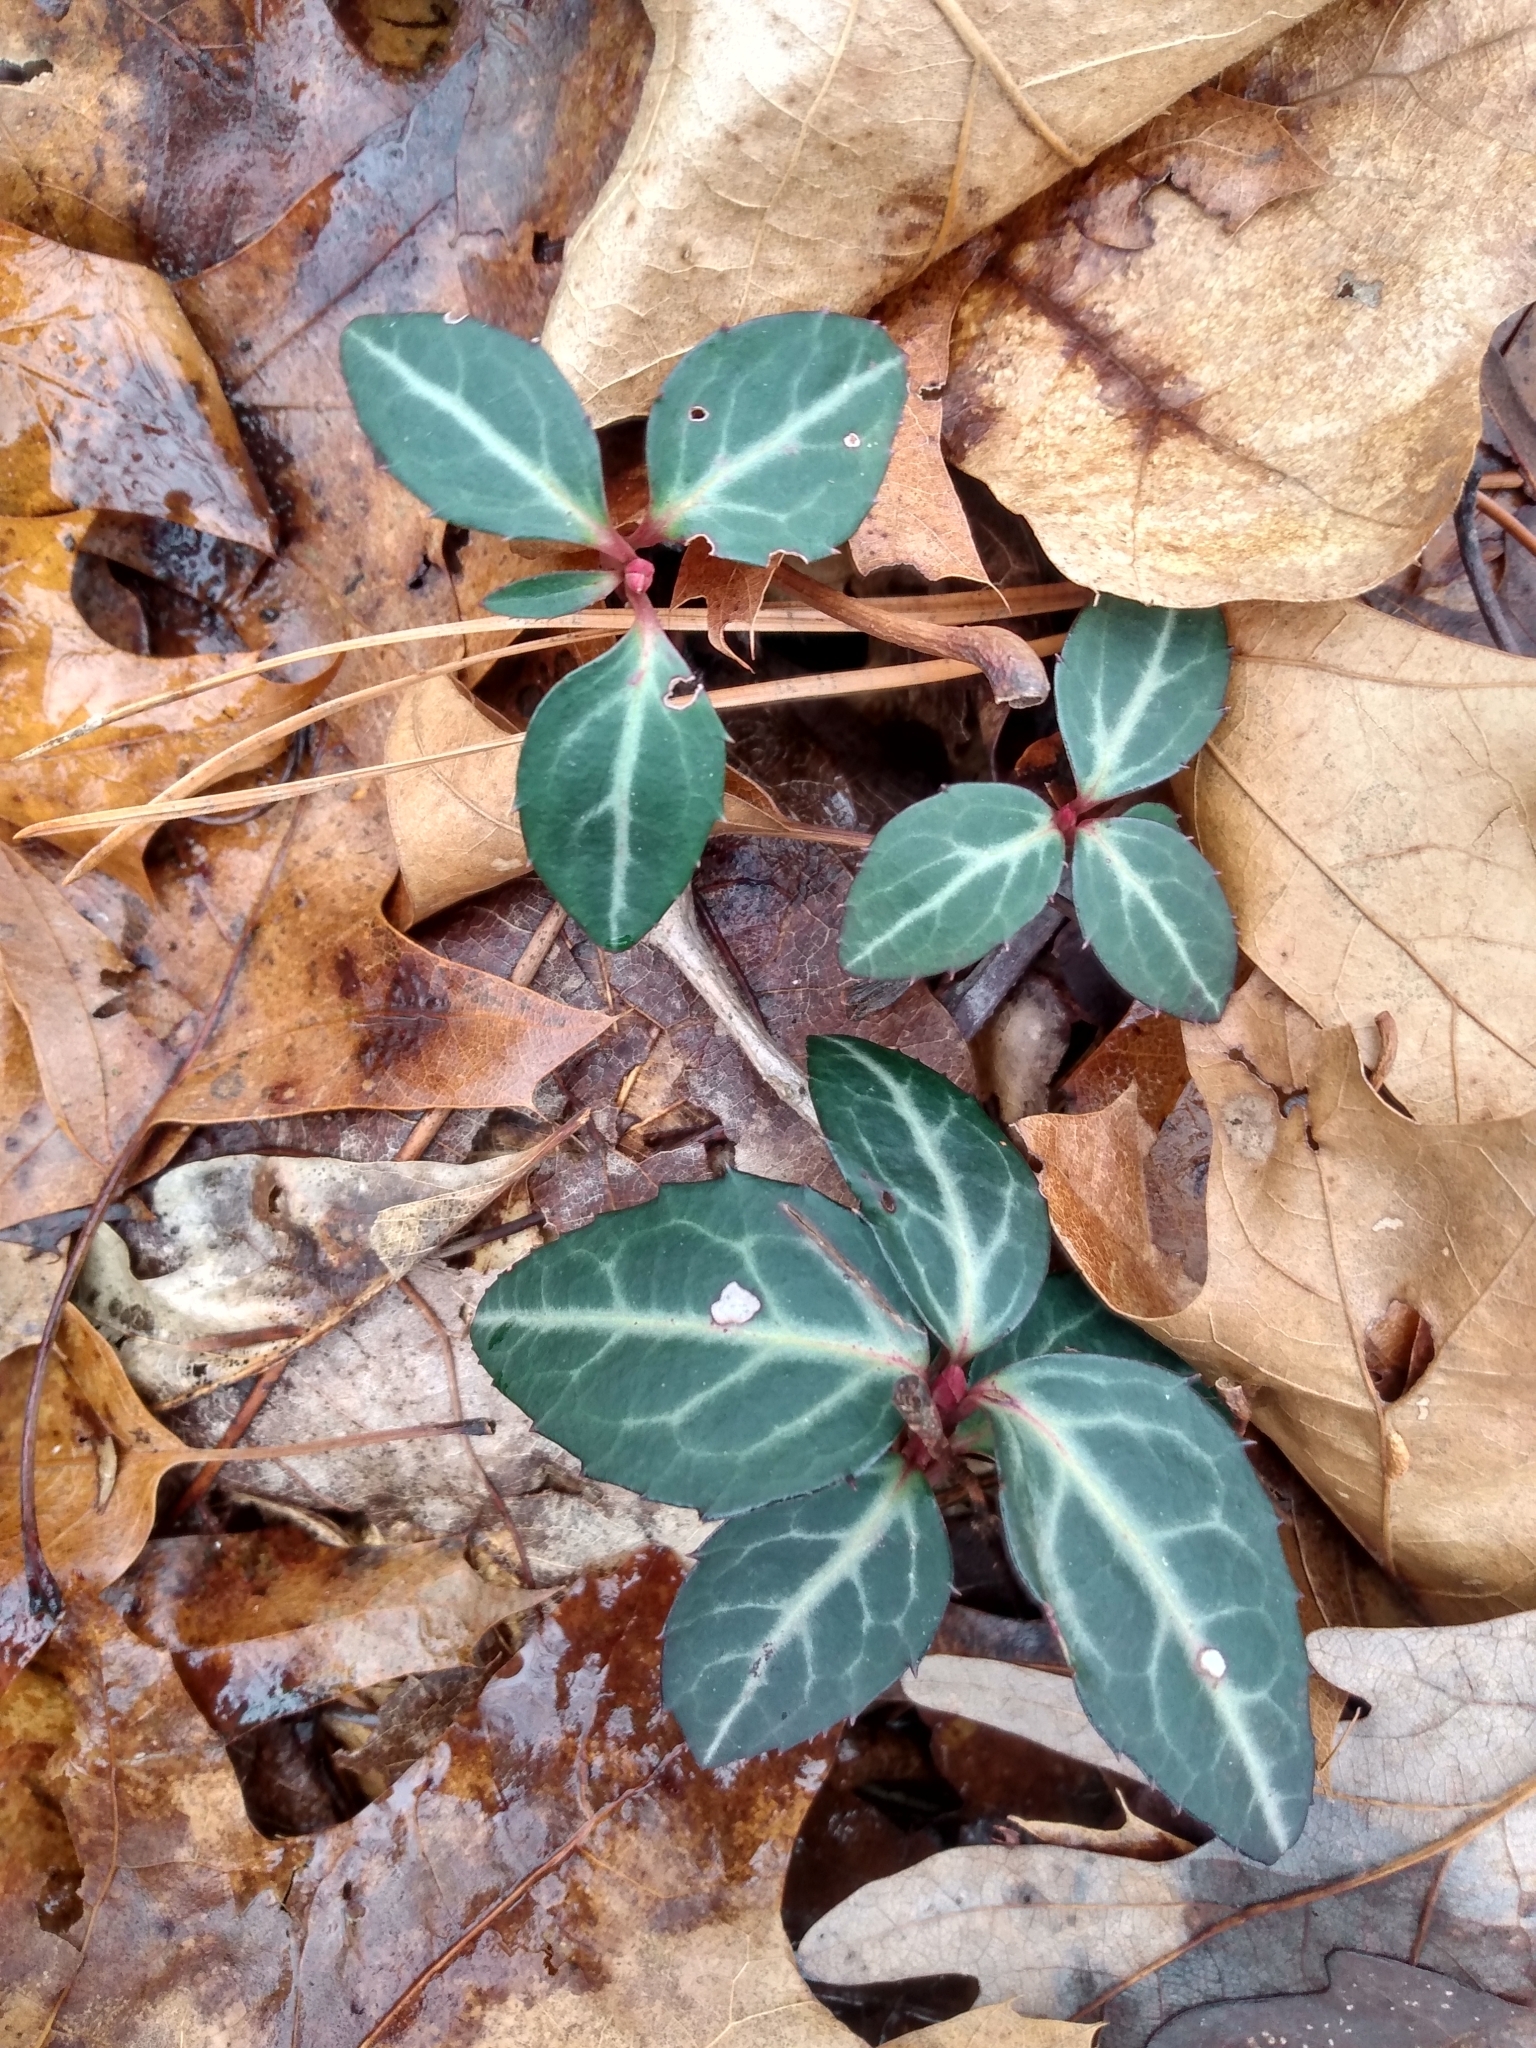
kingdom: Plantae
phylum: Tracheophyta
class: Magnoliopsida
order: Ericales
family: Ericaceae
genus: Chimaphila
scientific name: Chimaphila maculata
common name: Spotted pipsissewa
